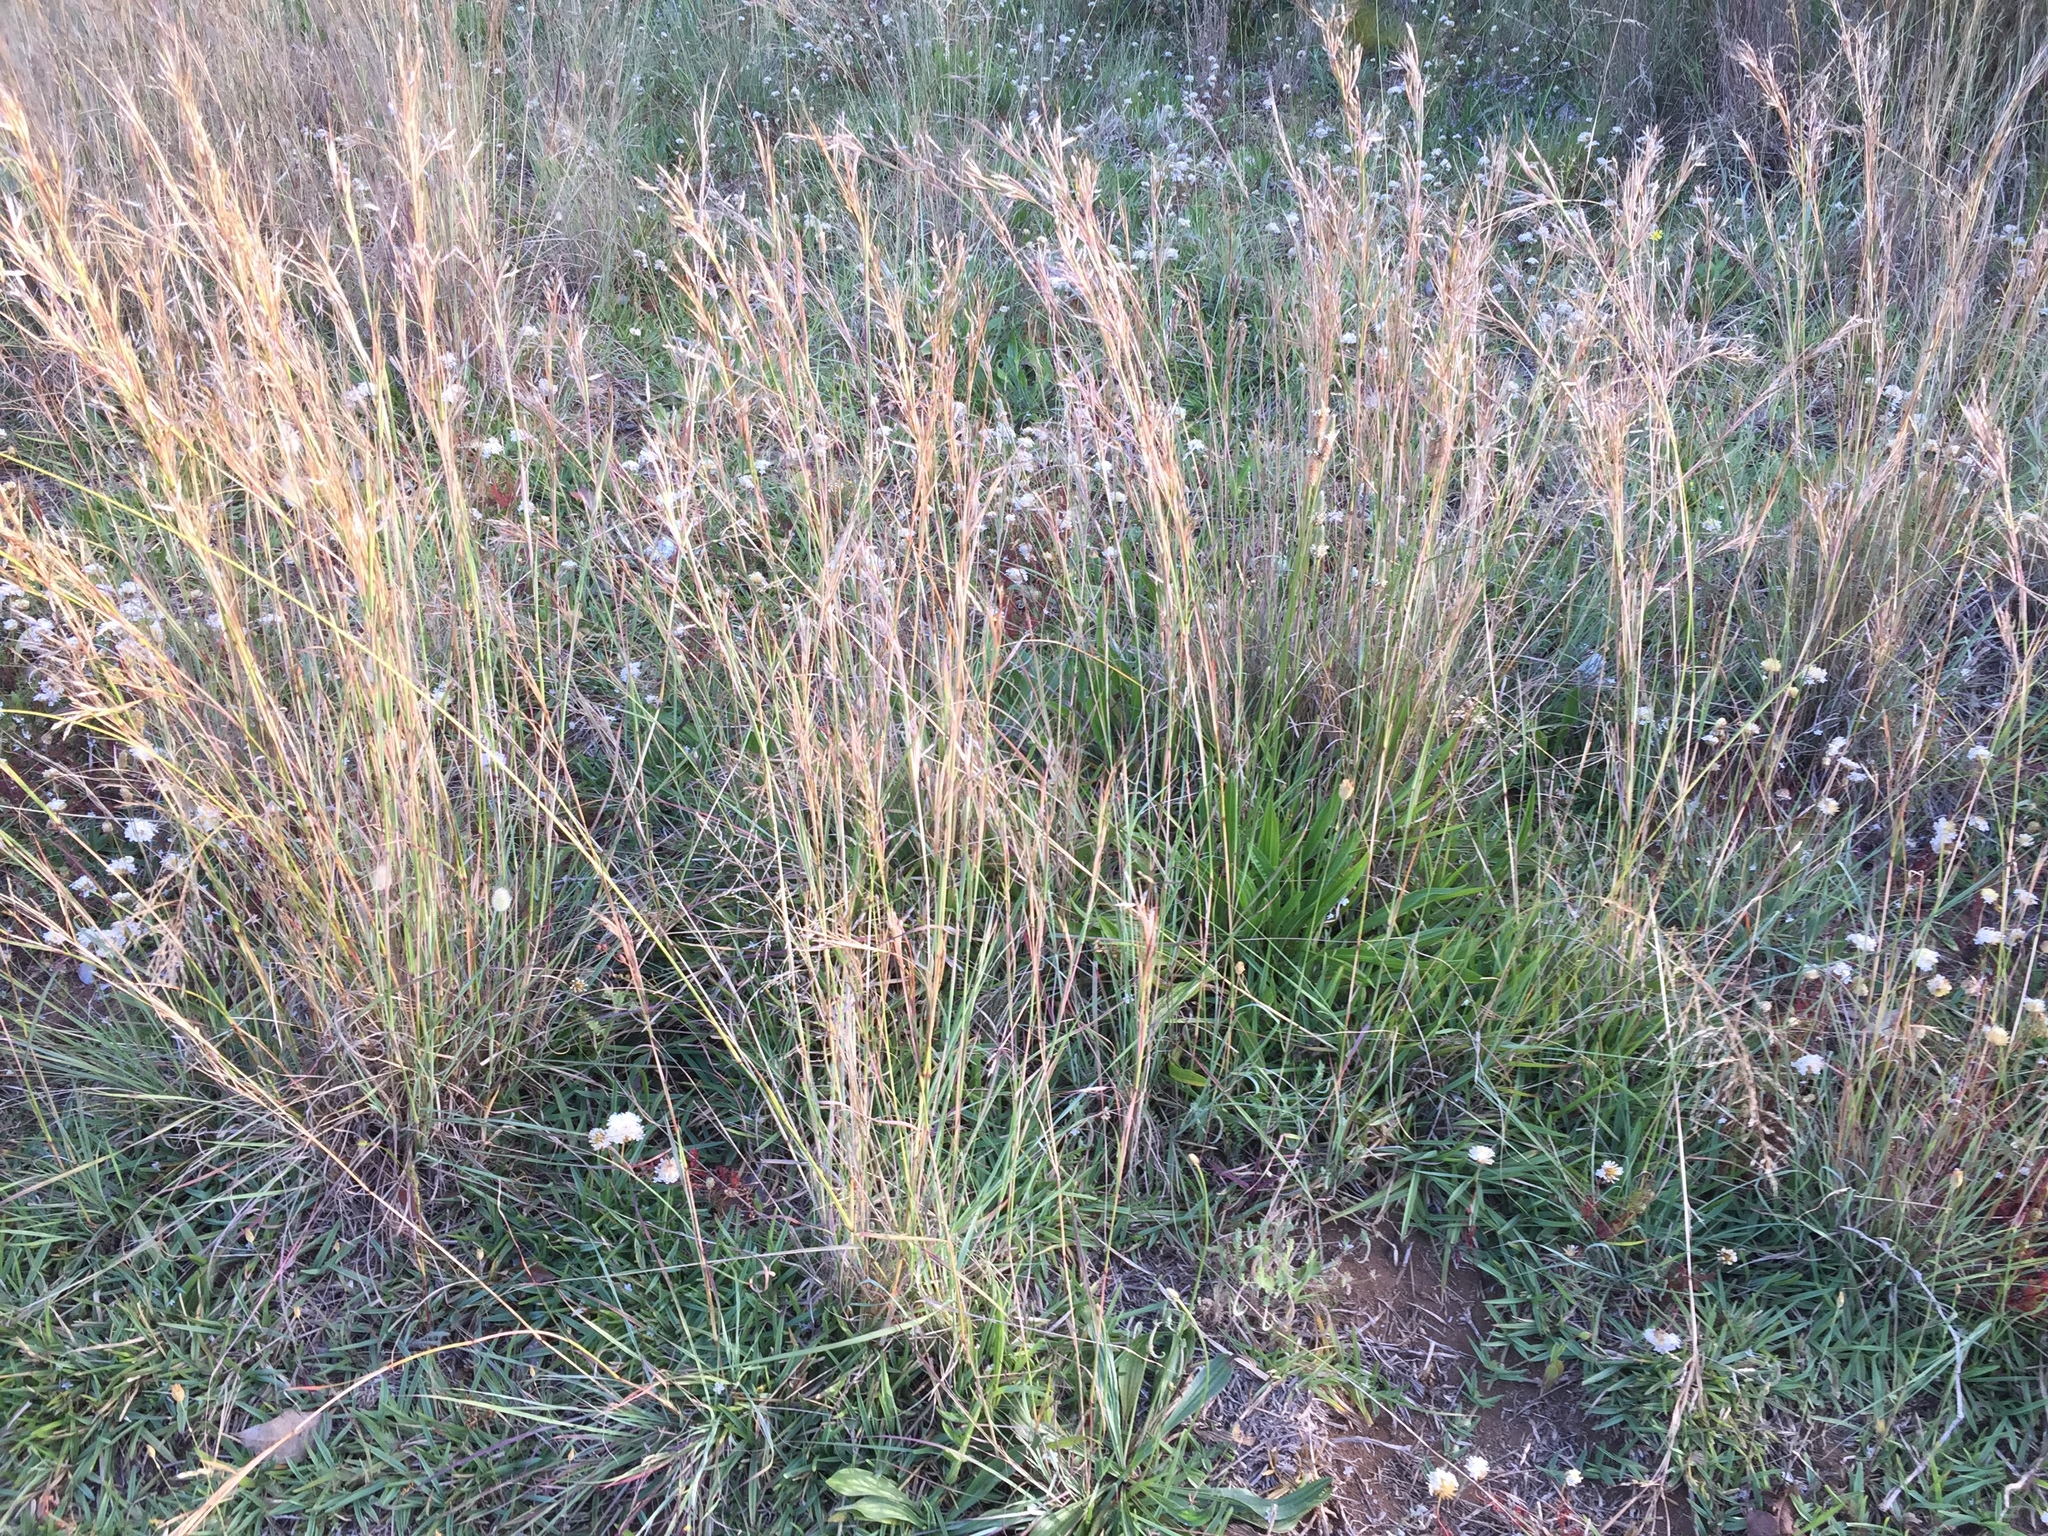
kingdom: Plantae
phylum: Tracheophyta
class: Liliopsida
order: Poales
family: Poaceae
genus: Hyparrhenia
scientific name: Hyparrhenia hirta
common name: Thatching grass
